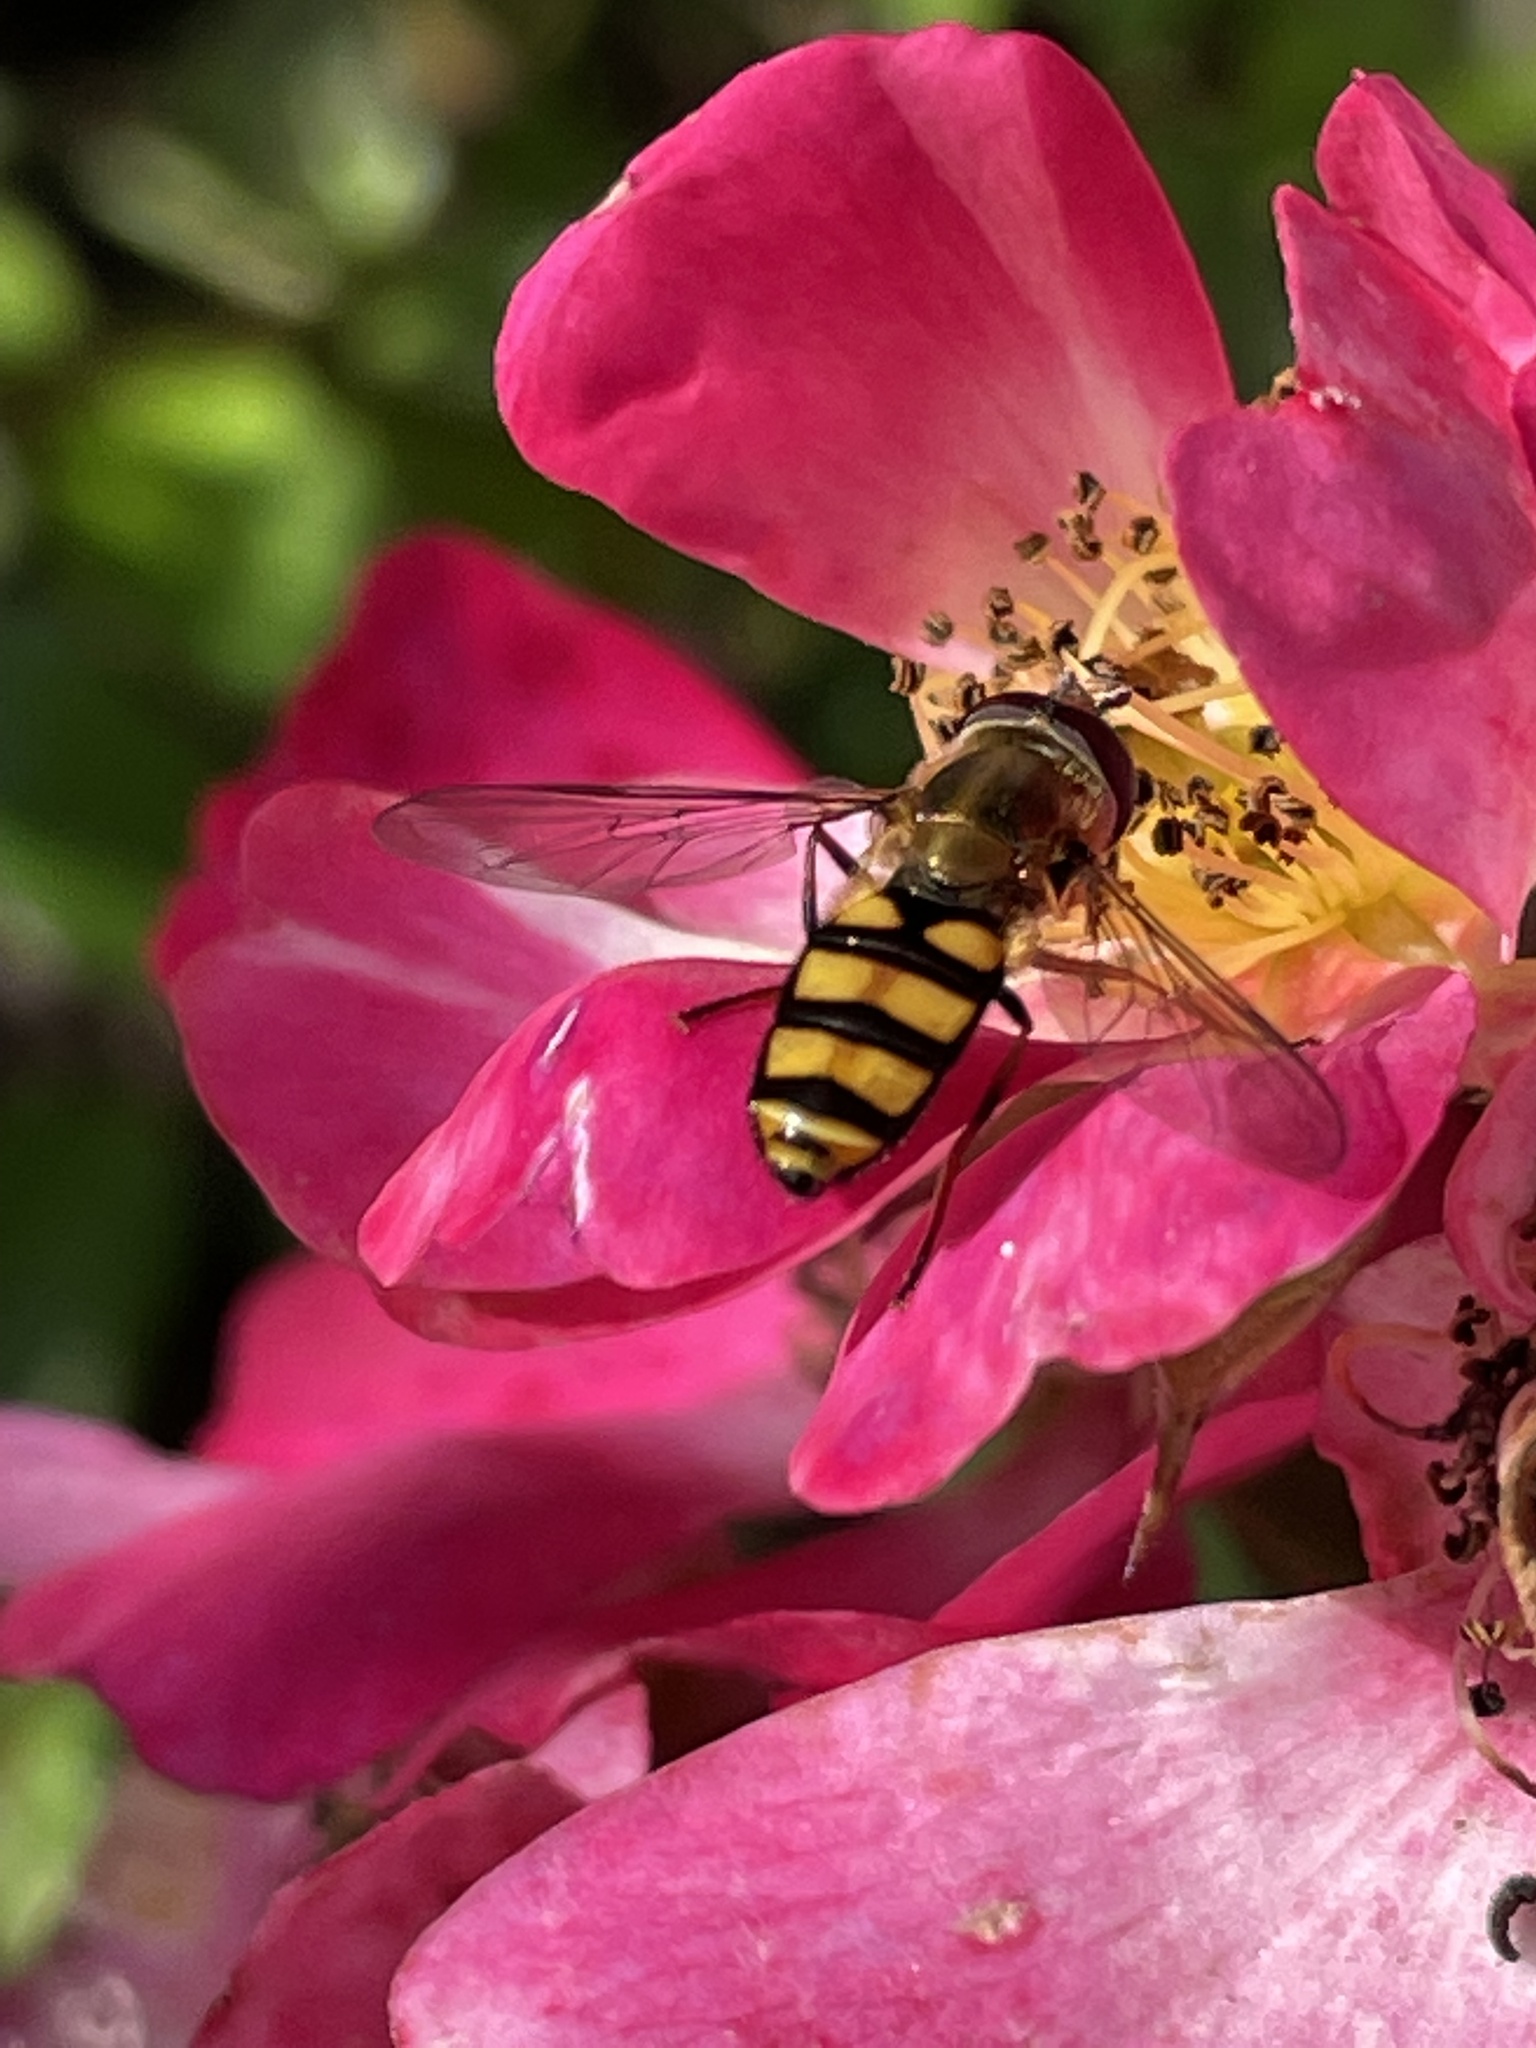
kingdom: Animalia
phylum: Arthropoda
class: Insecta
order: Diptera
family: Syrphidae
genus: Eupeodes
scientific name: Eupeodes
